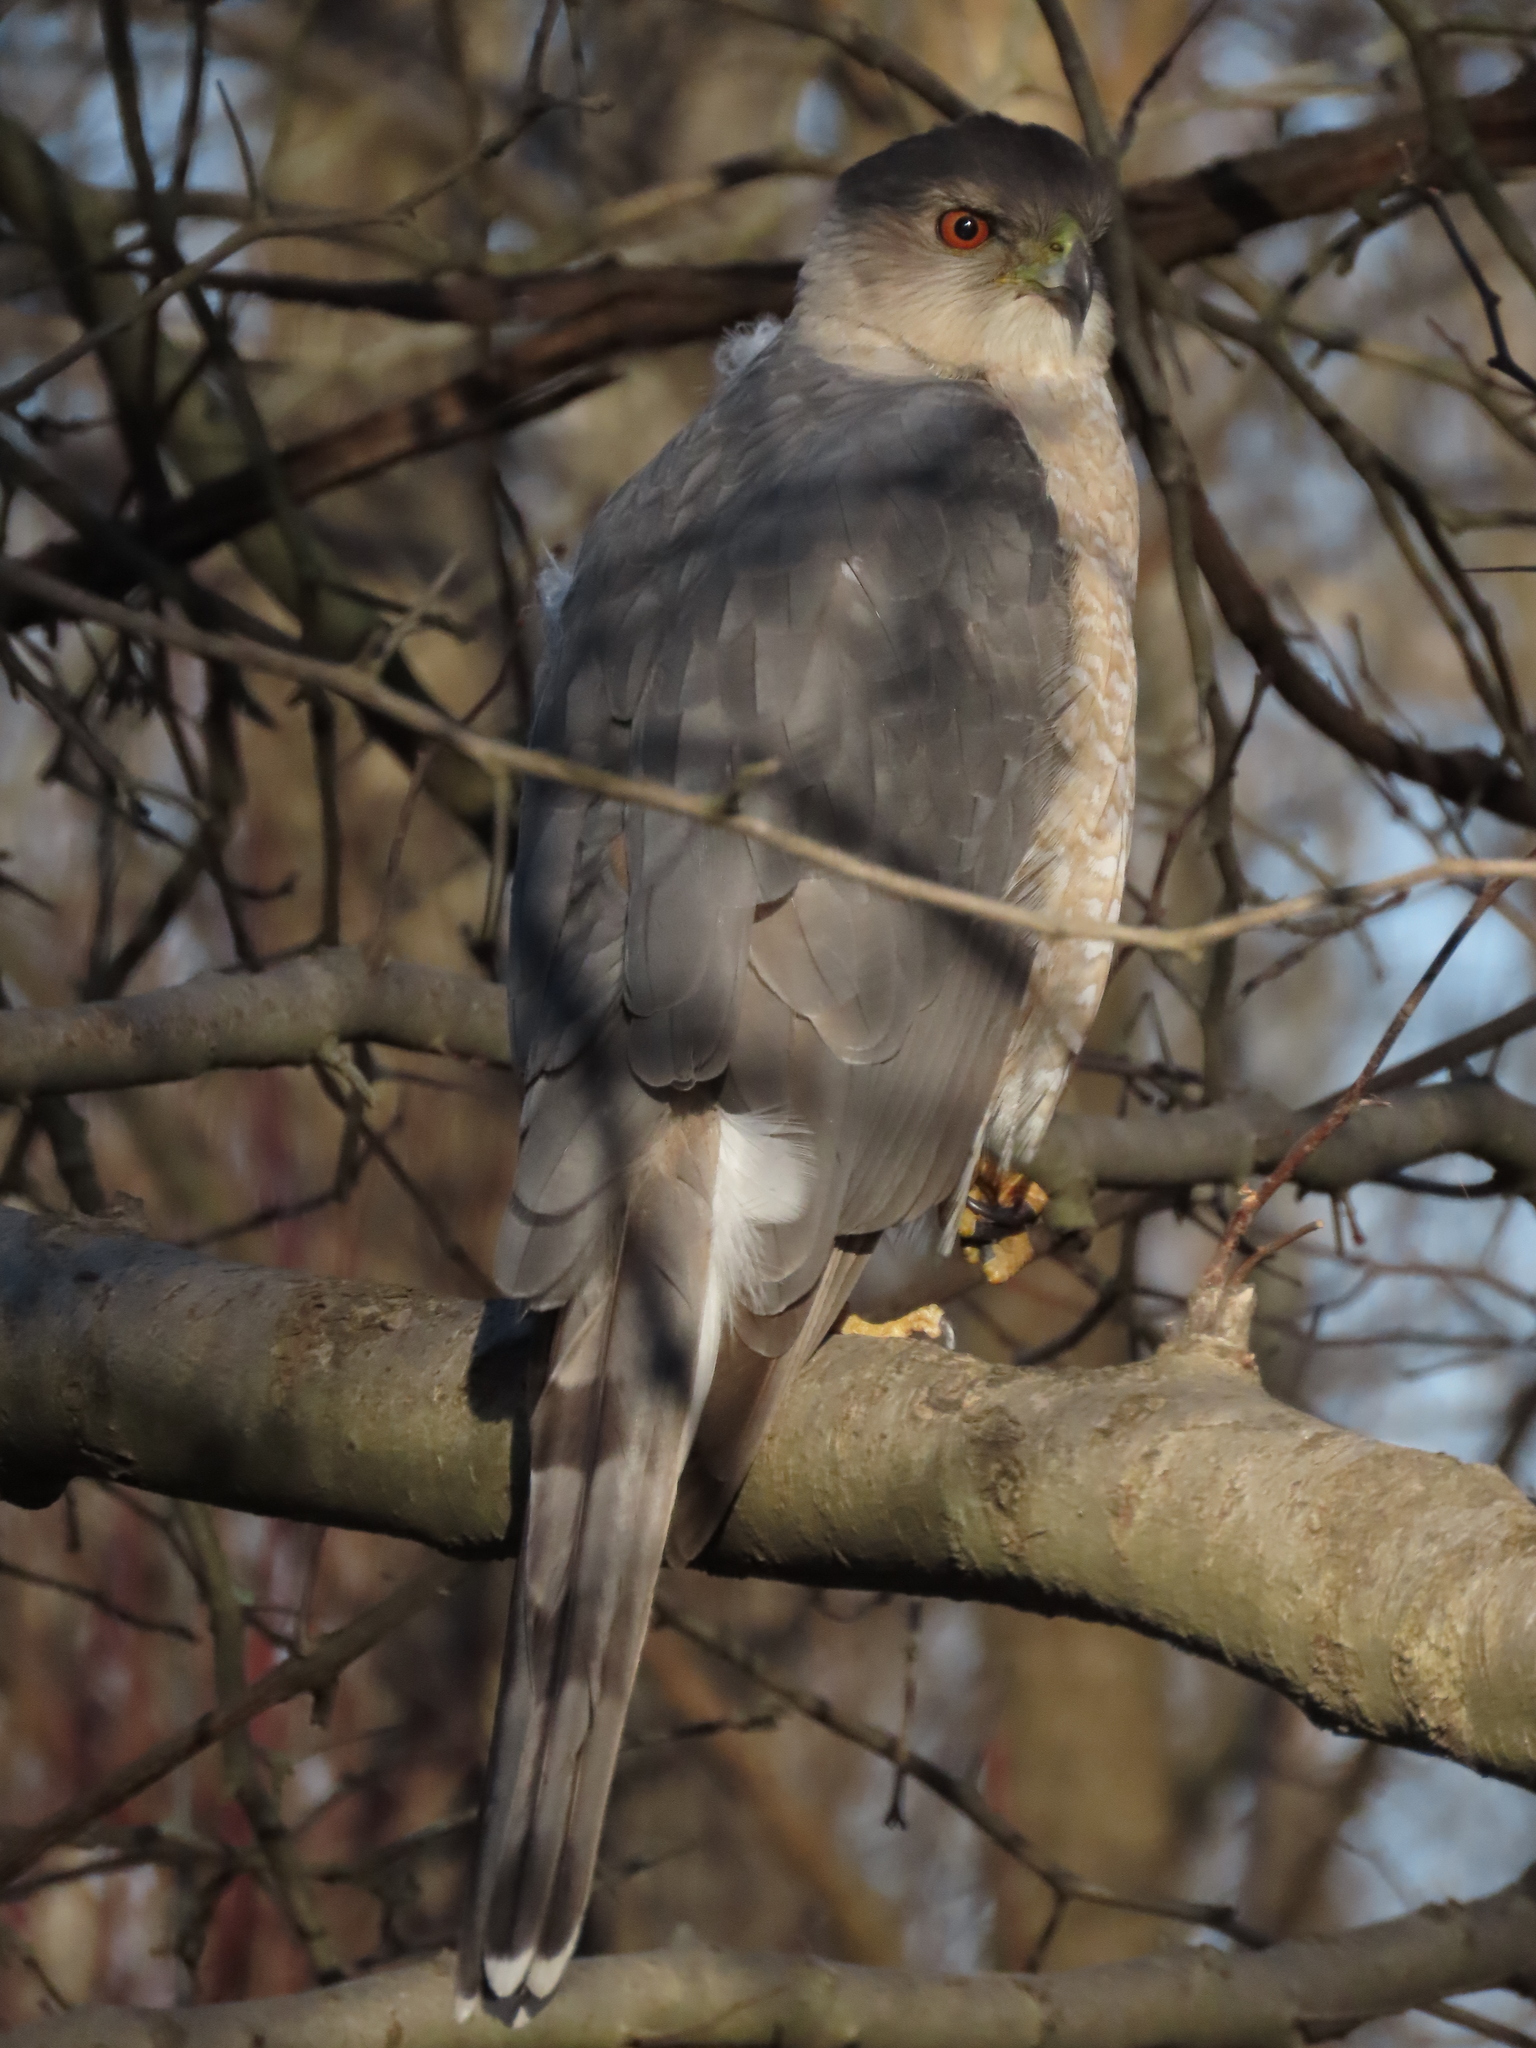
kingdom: Animalia
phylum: Chordata
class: Aves
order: Accipitriformes
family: Accipitridae
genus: Accipiter
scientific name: Accipiter cooperii
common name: Cooper's hawk
